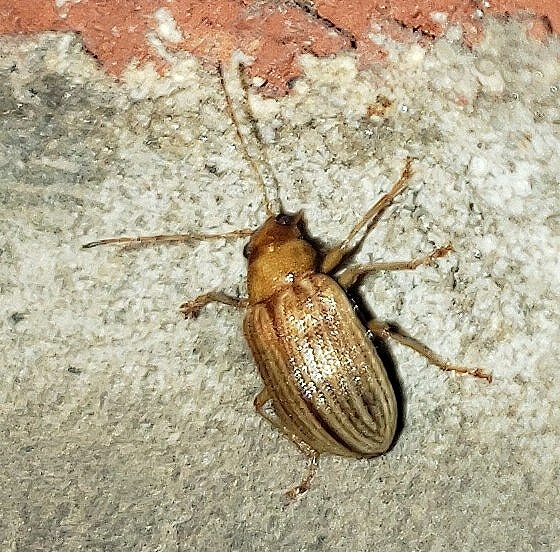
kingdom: Animalia
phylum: Arthropoda
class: Insecta
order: Coleoptera
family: Chrysomelidae
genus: Colaspis
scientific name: Colaspis brunnea
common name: Grape colaspis
